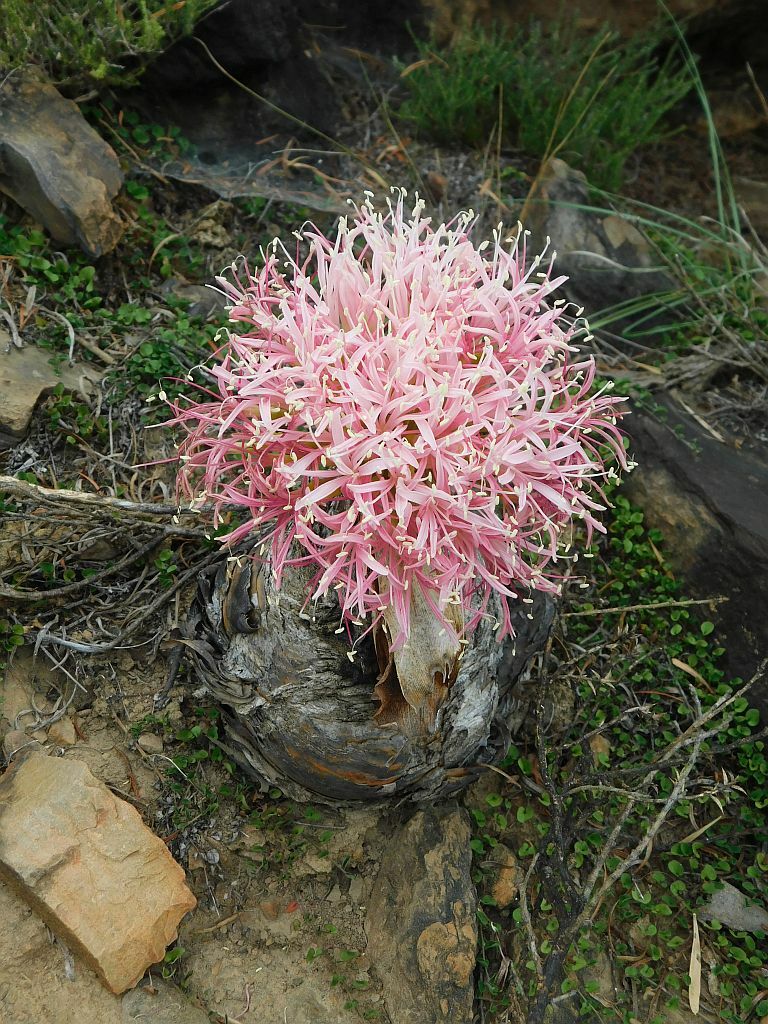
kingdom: Plantae
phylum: Tracheophyta
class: Liliopsida
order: Asparagales
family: Amaryllidaceae
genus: Boophone
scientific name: Boophone disticha
